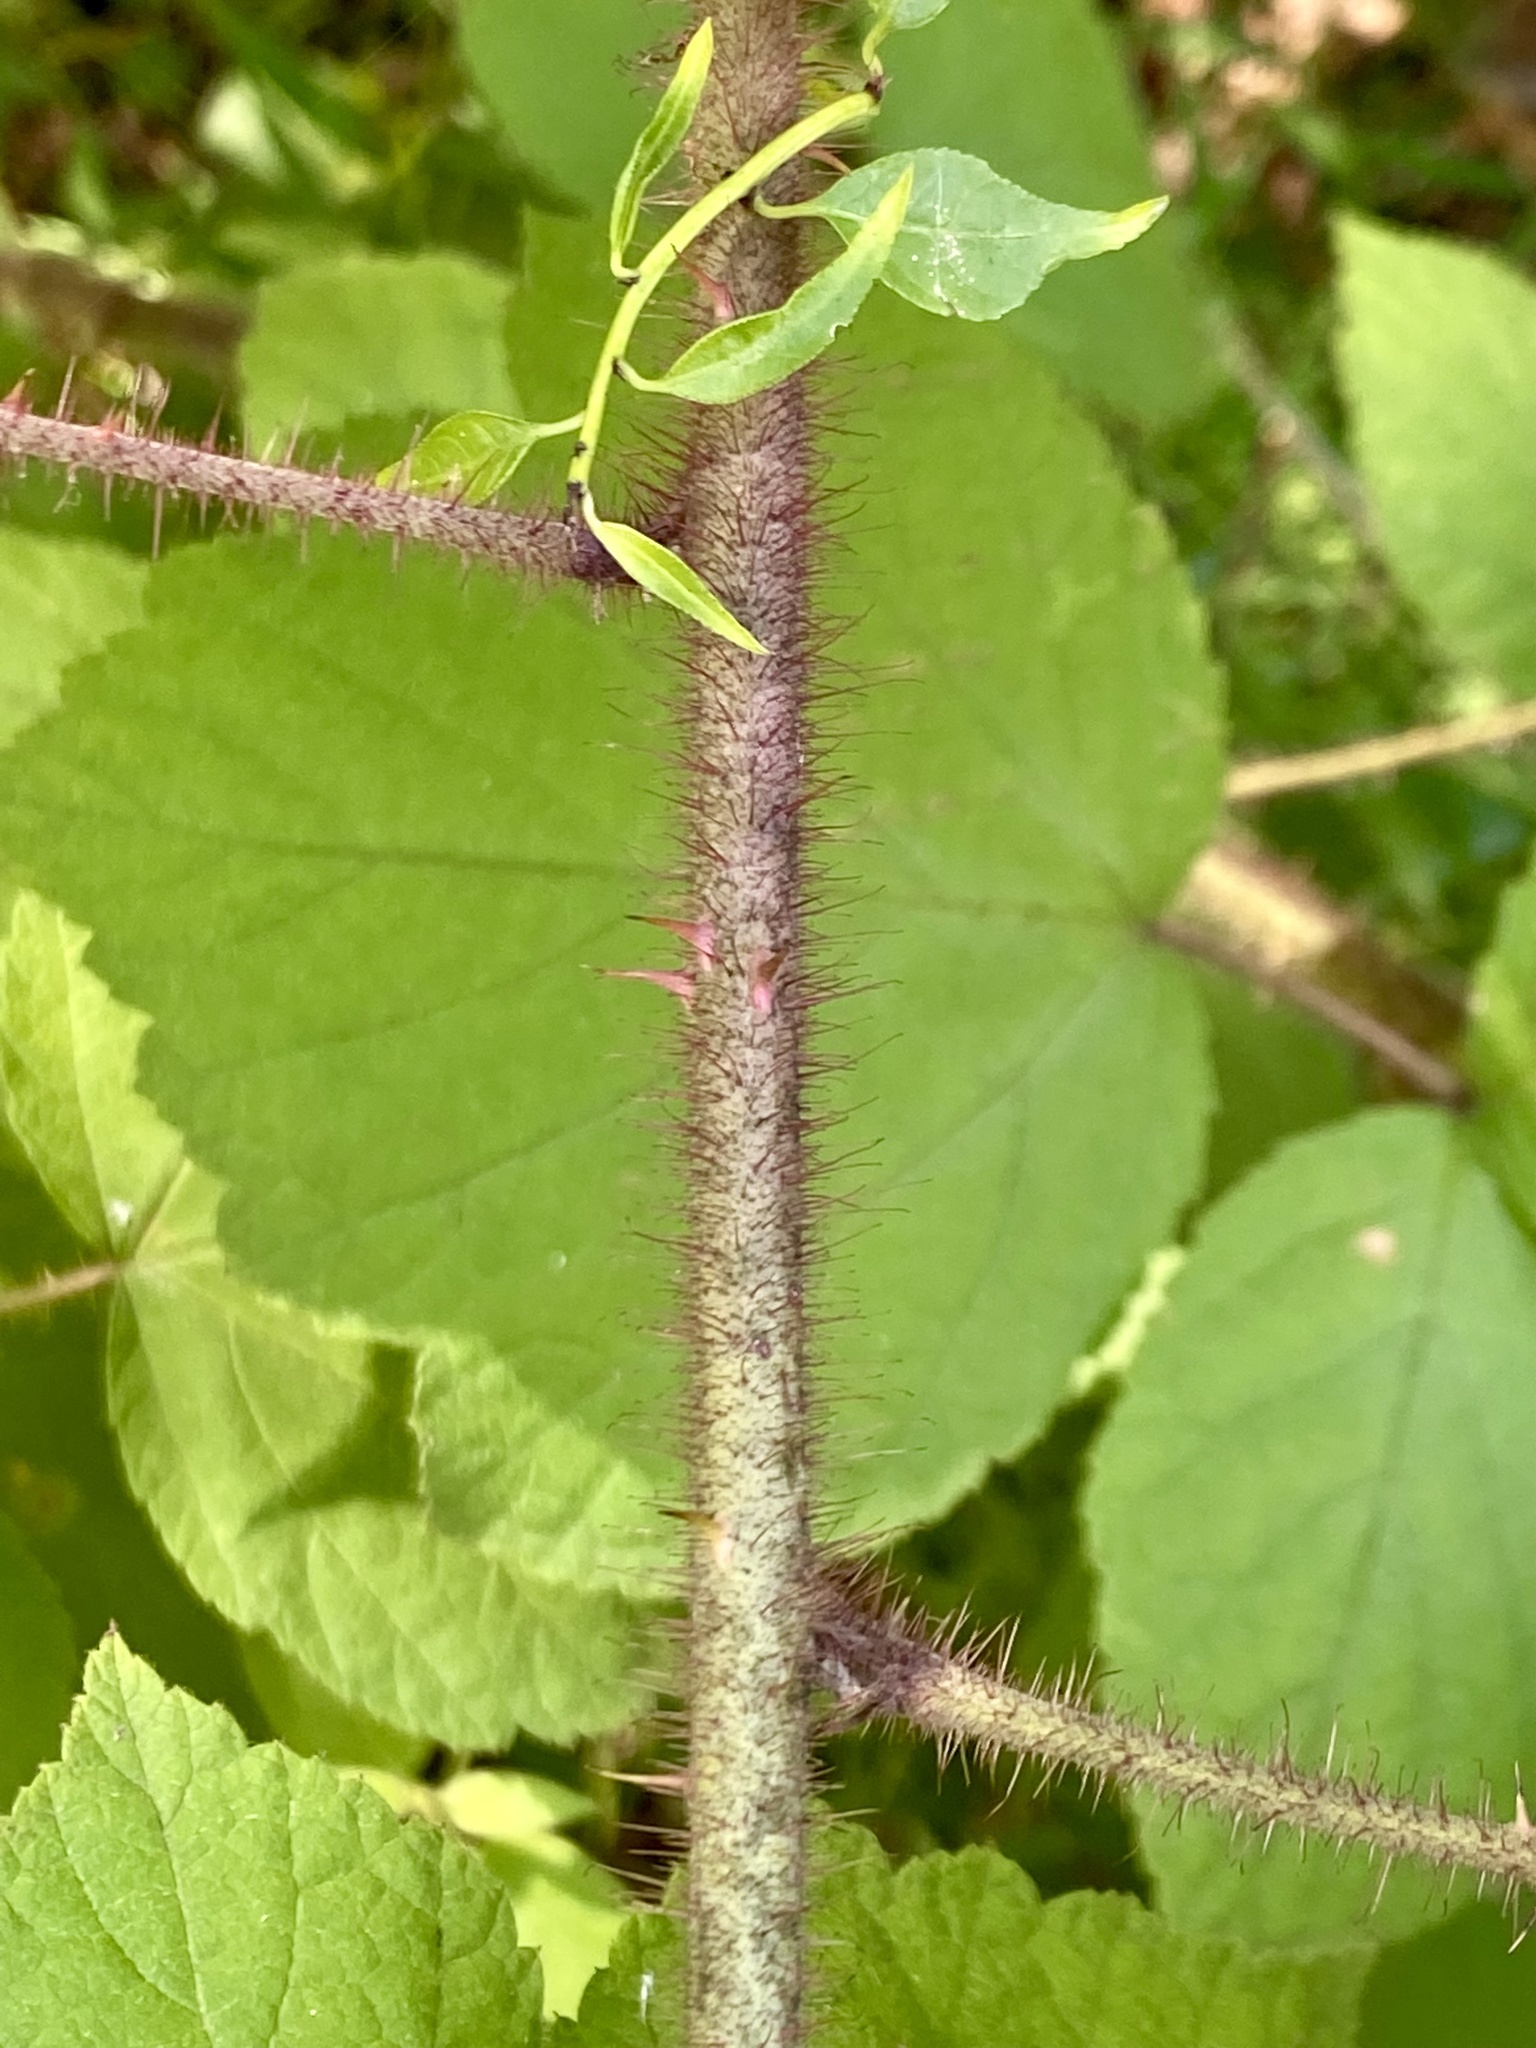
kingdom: Plantae
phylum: Tracheophyta
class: Magnoliopsida
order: Rosales
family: Rosaceae
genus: Rubus
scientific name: Rubus phoenicolasius
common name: Japanese wineberry
